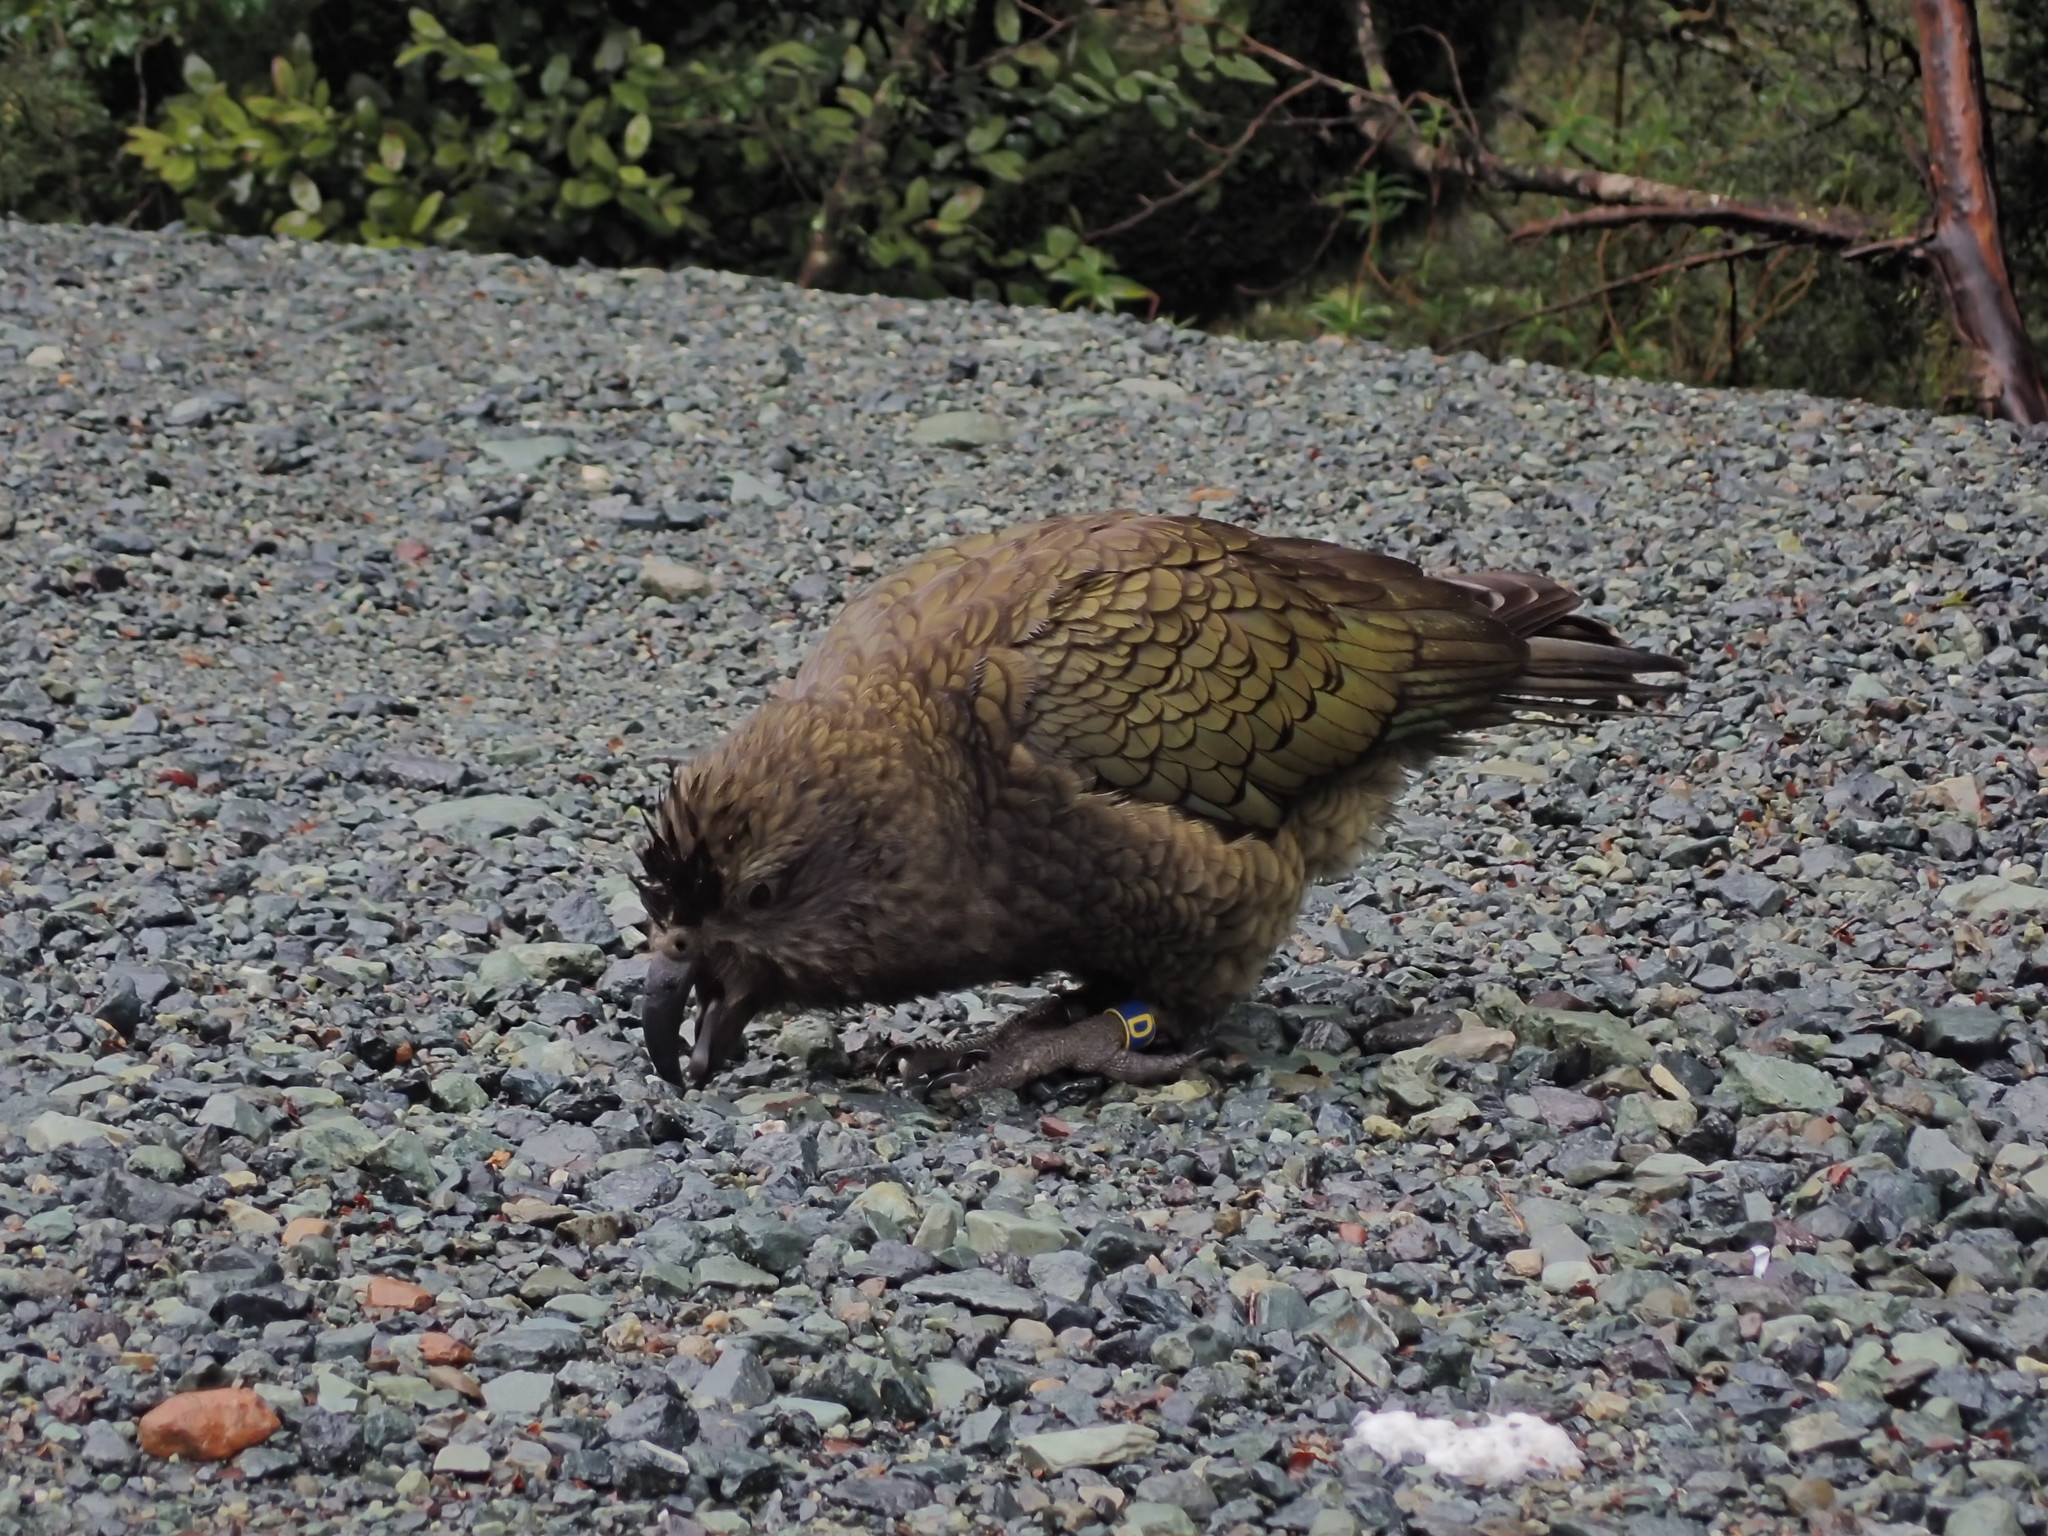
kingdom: Animalia
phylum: Chordata
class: Aves
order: Psittaciformes
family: Psittacidae
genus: Nestor
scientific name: Nestor notabilis
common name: Kea
